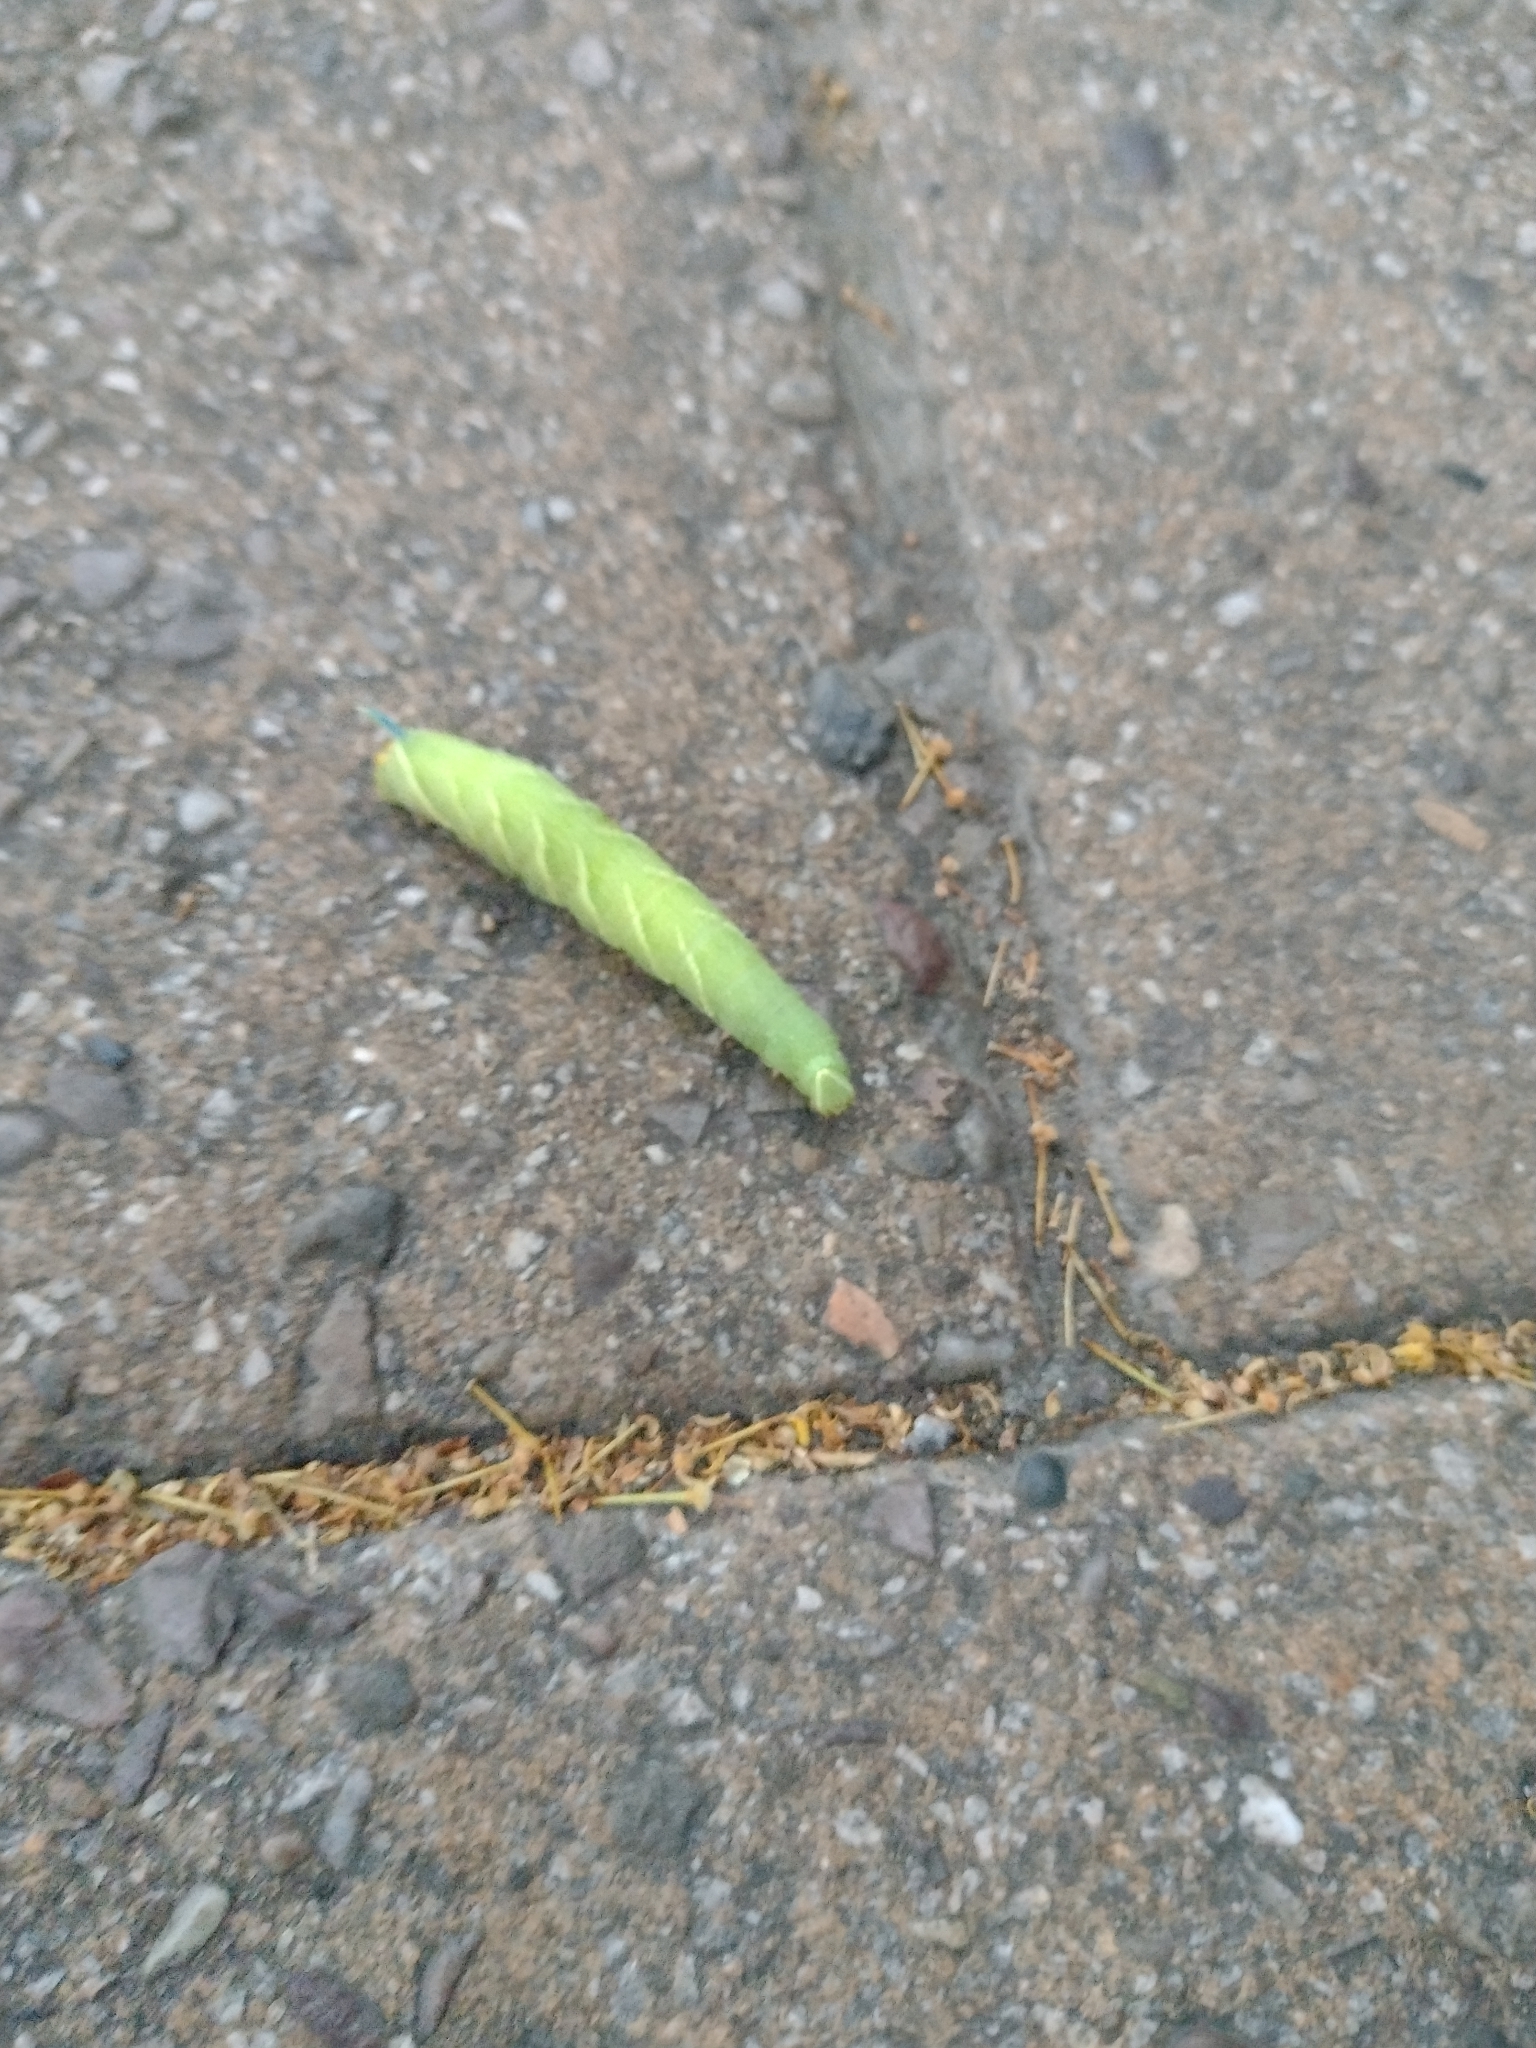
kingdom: Animalia
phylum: Arthropoda
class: Insecta
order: Lepidoptera
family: Sphingidae
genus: Mimas
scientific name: Mimas tiliae
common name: Lime hawk-moth
